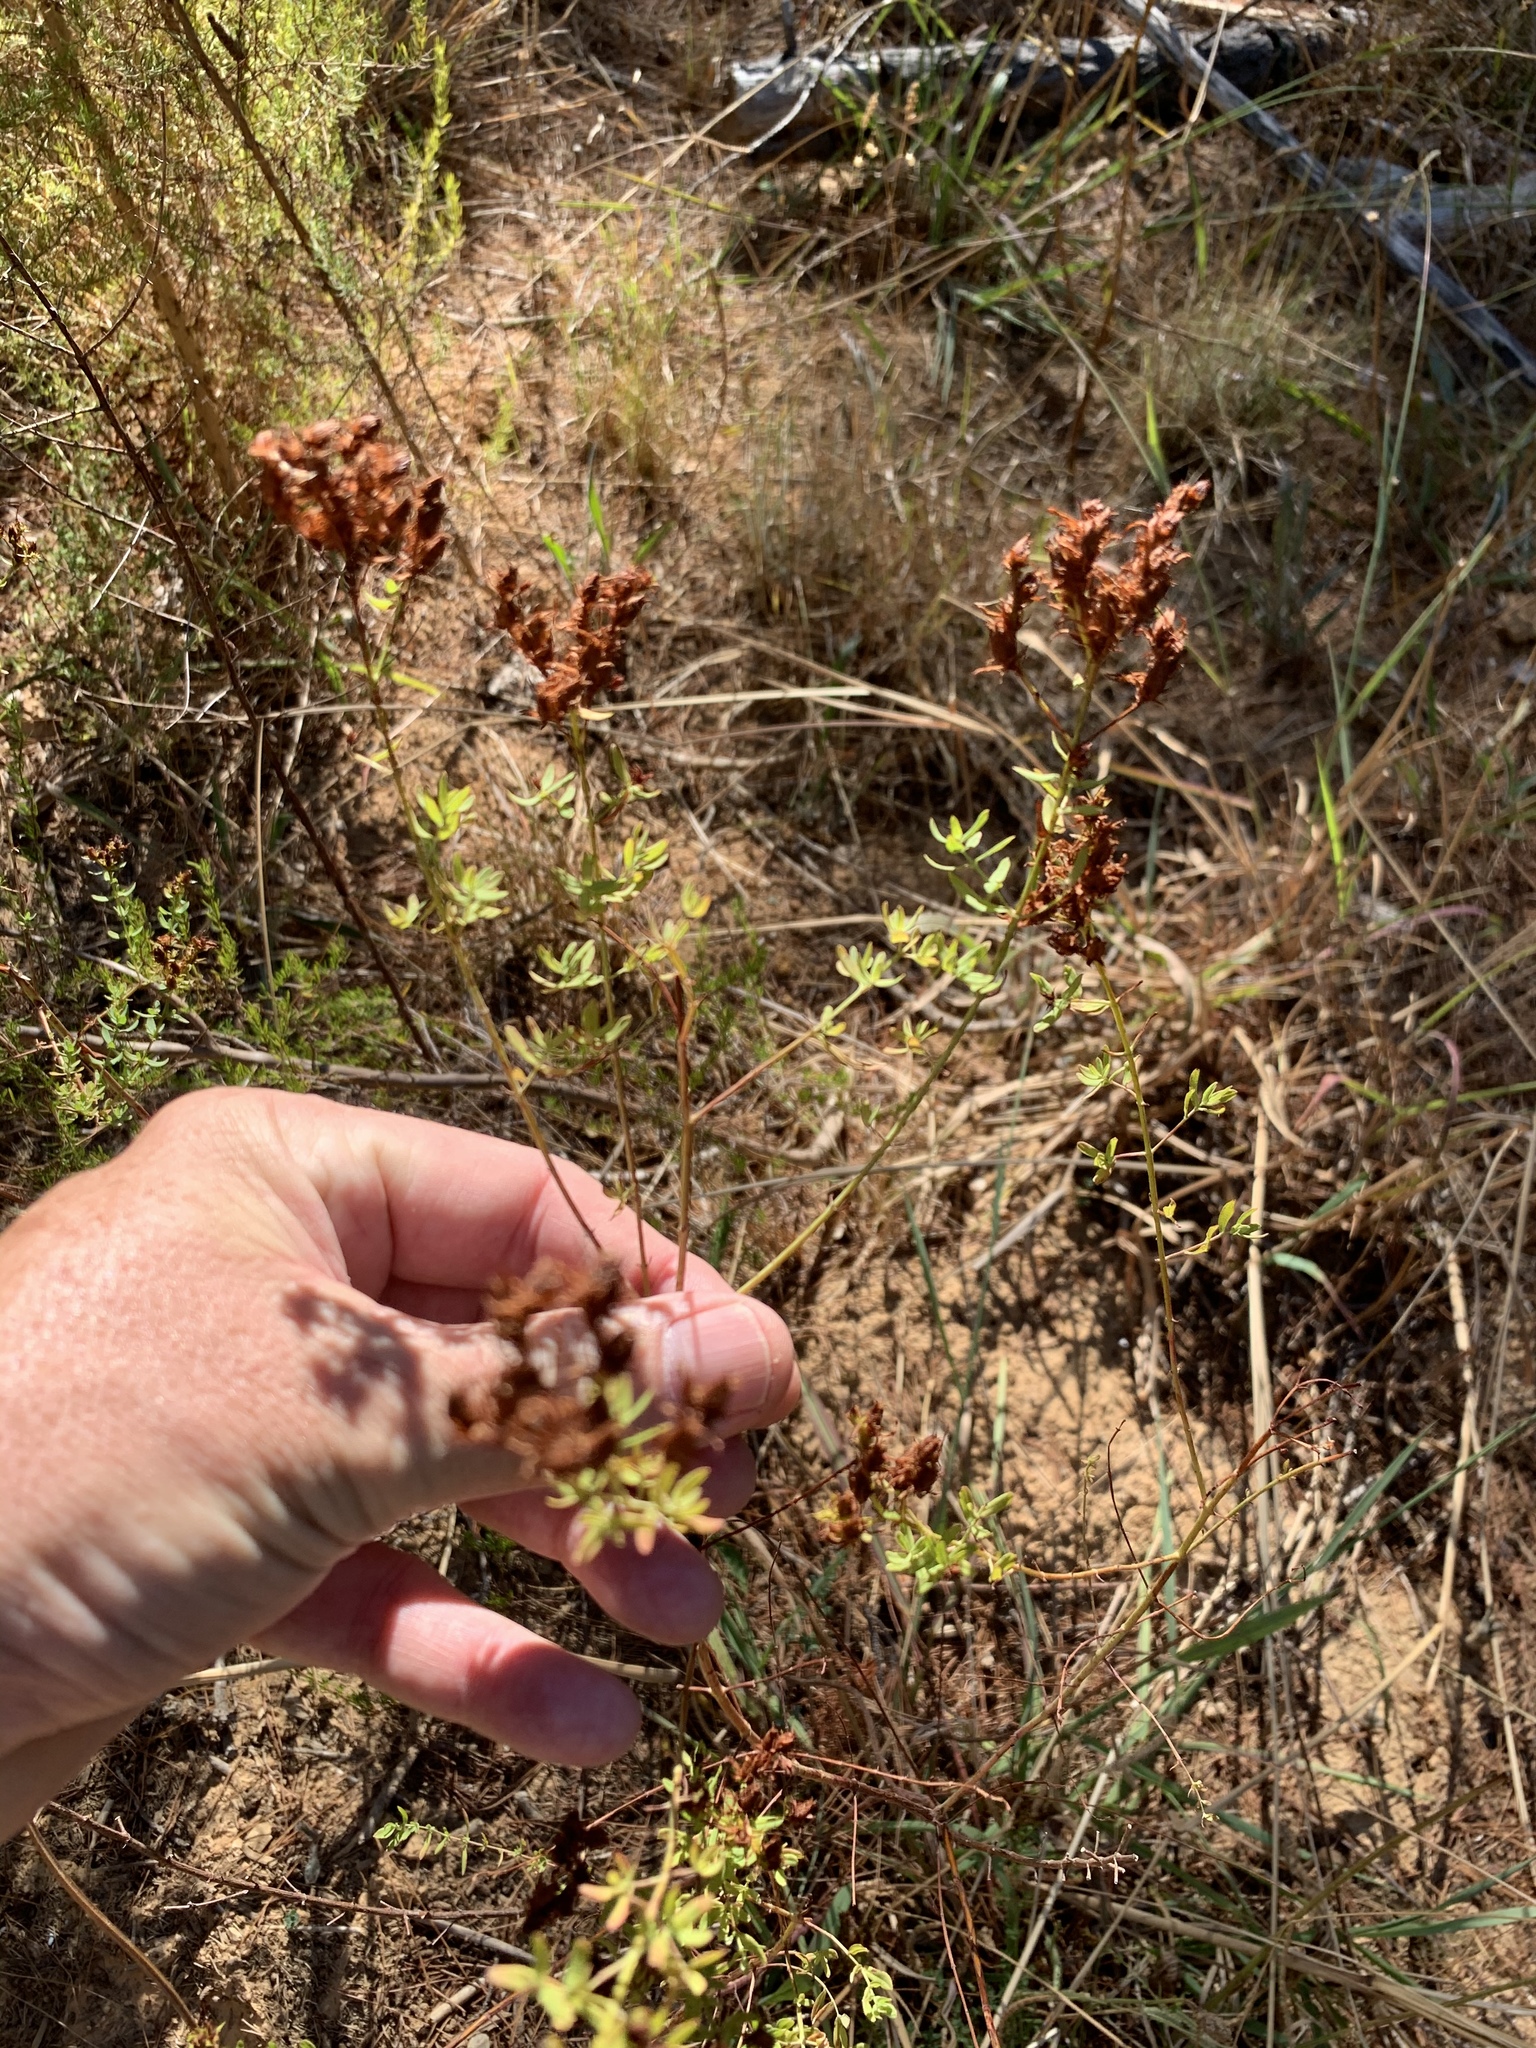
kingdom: Plantae
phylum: Tracheophyta
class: Magnoliopsida
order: Malpighiales
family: Hypericaceae
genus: Hypericum
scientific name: Hypericum perforatum
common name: Common st. johnswort
